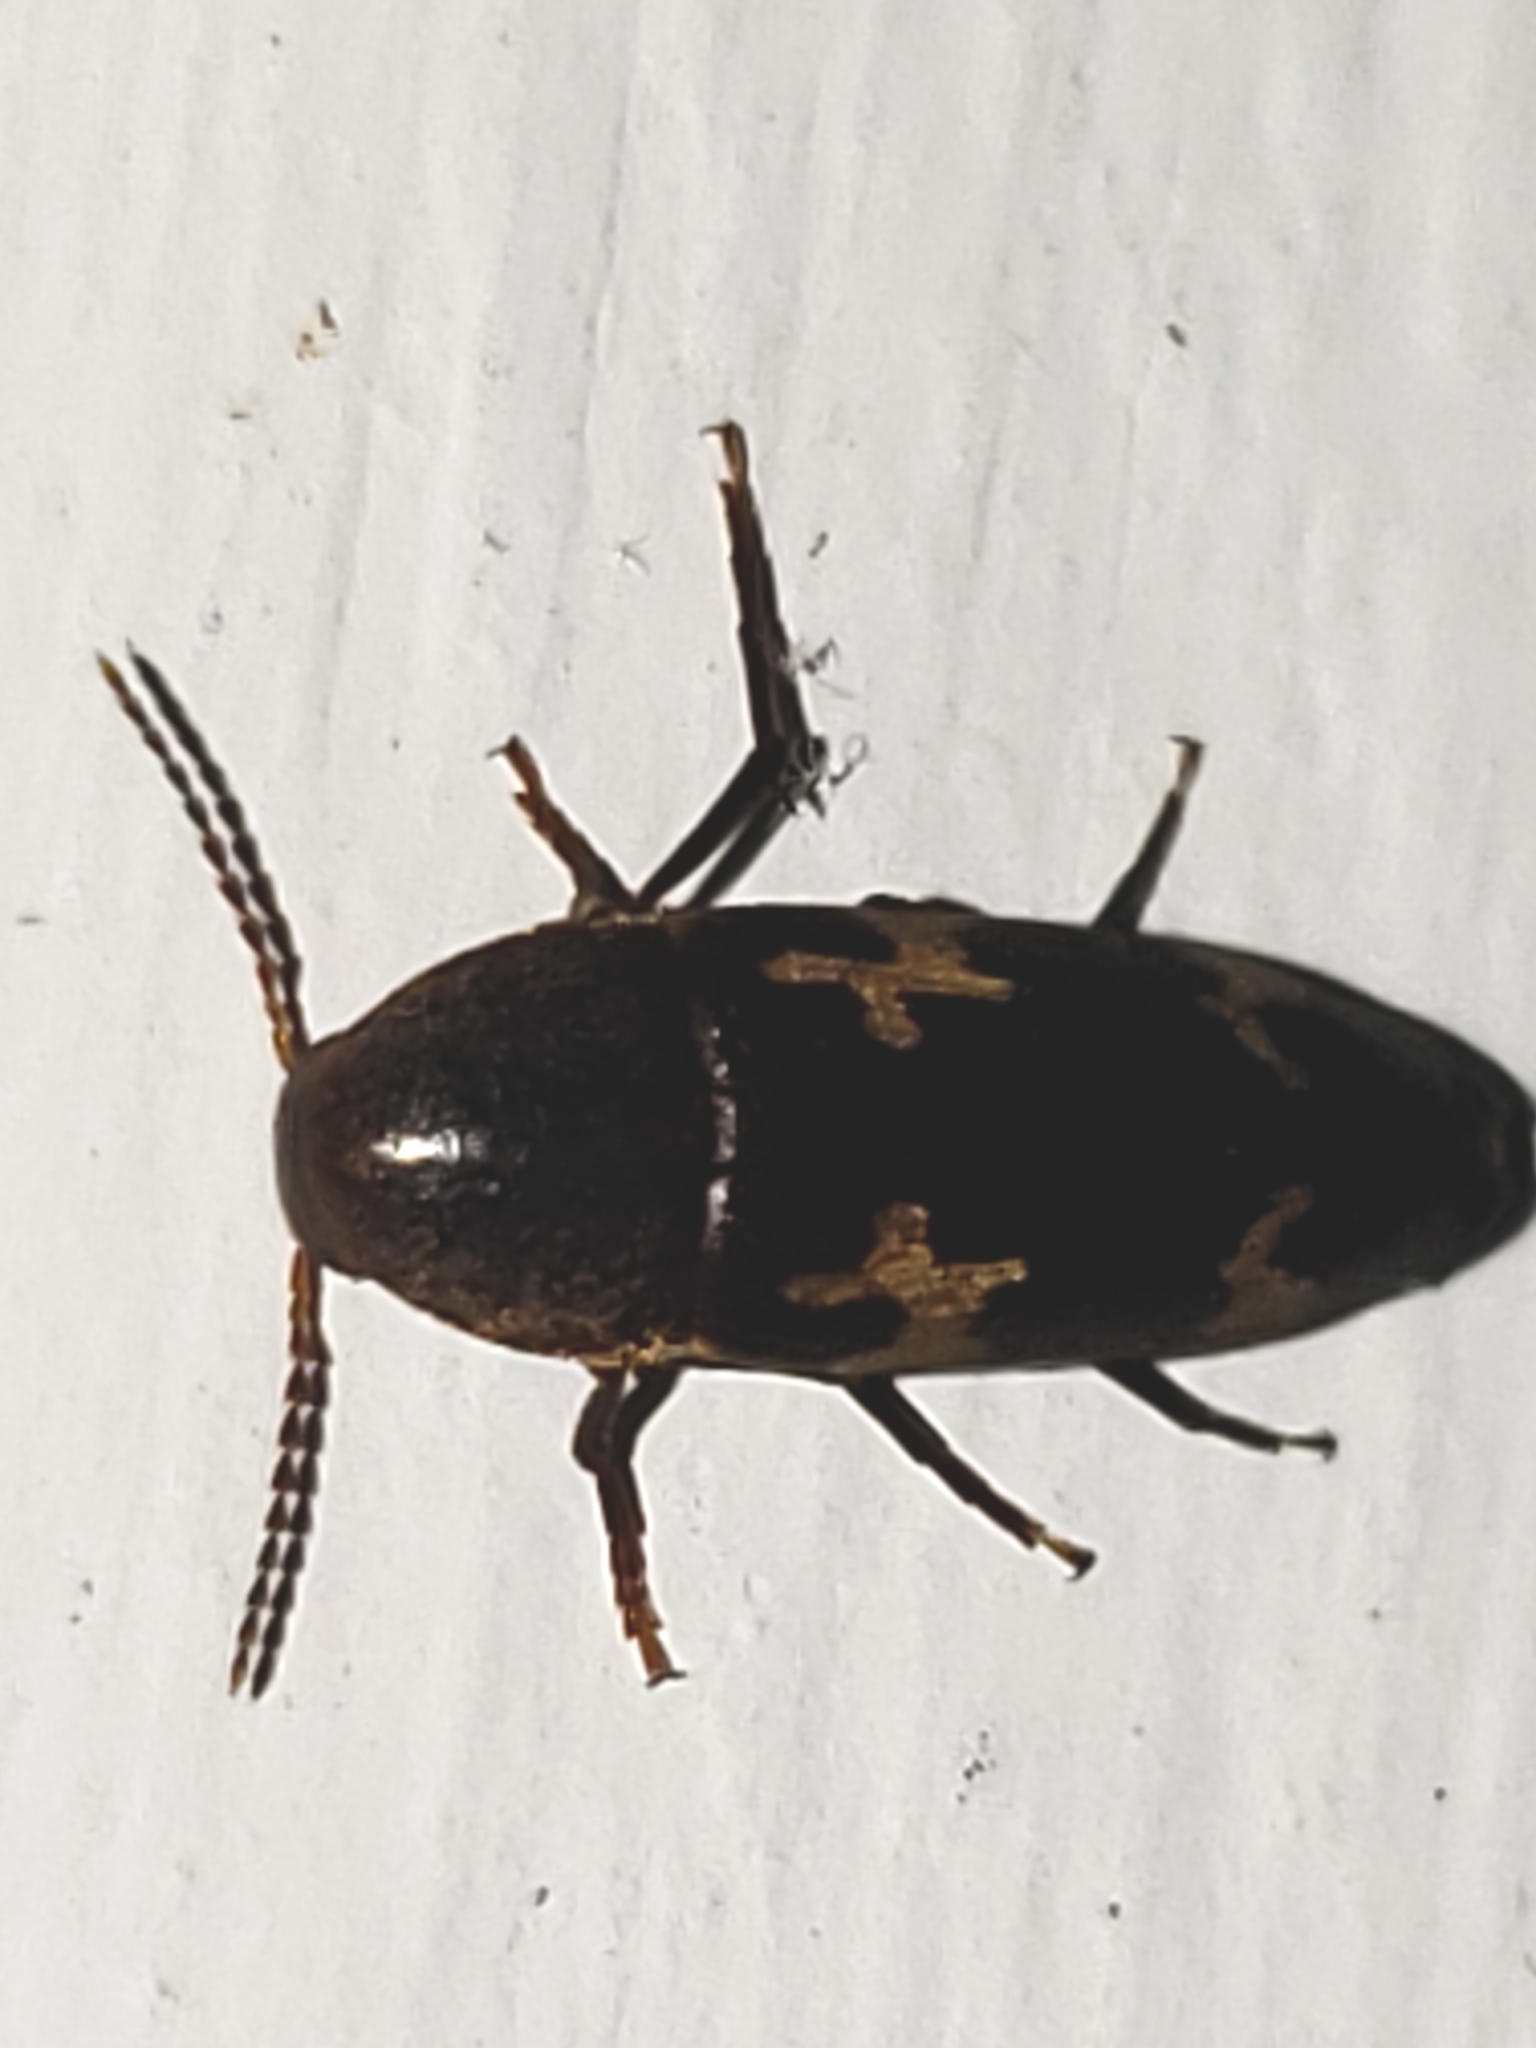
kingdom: Animalia
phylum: Arthropoda
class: Insecta
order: Coleoptera
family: Melandryidae
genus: Dircaea
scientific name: Dircaea liturata
